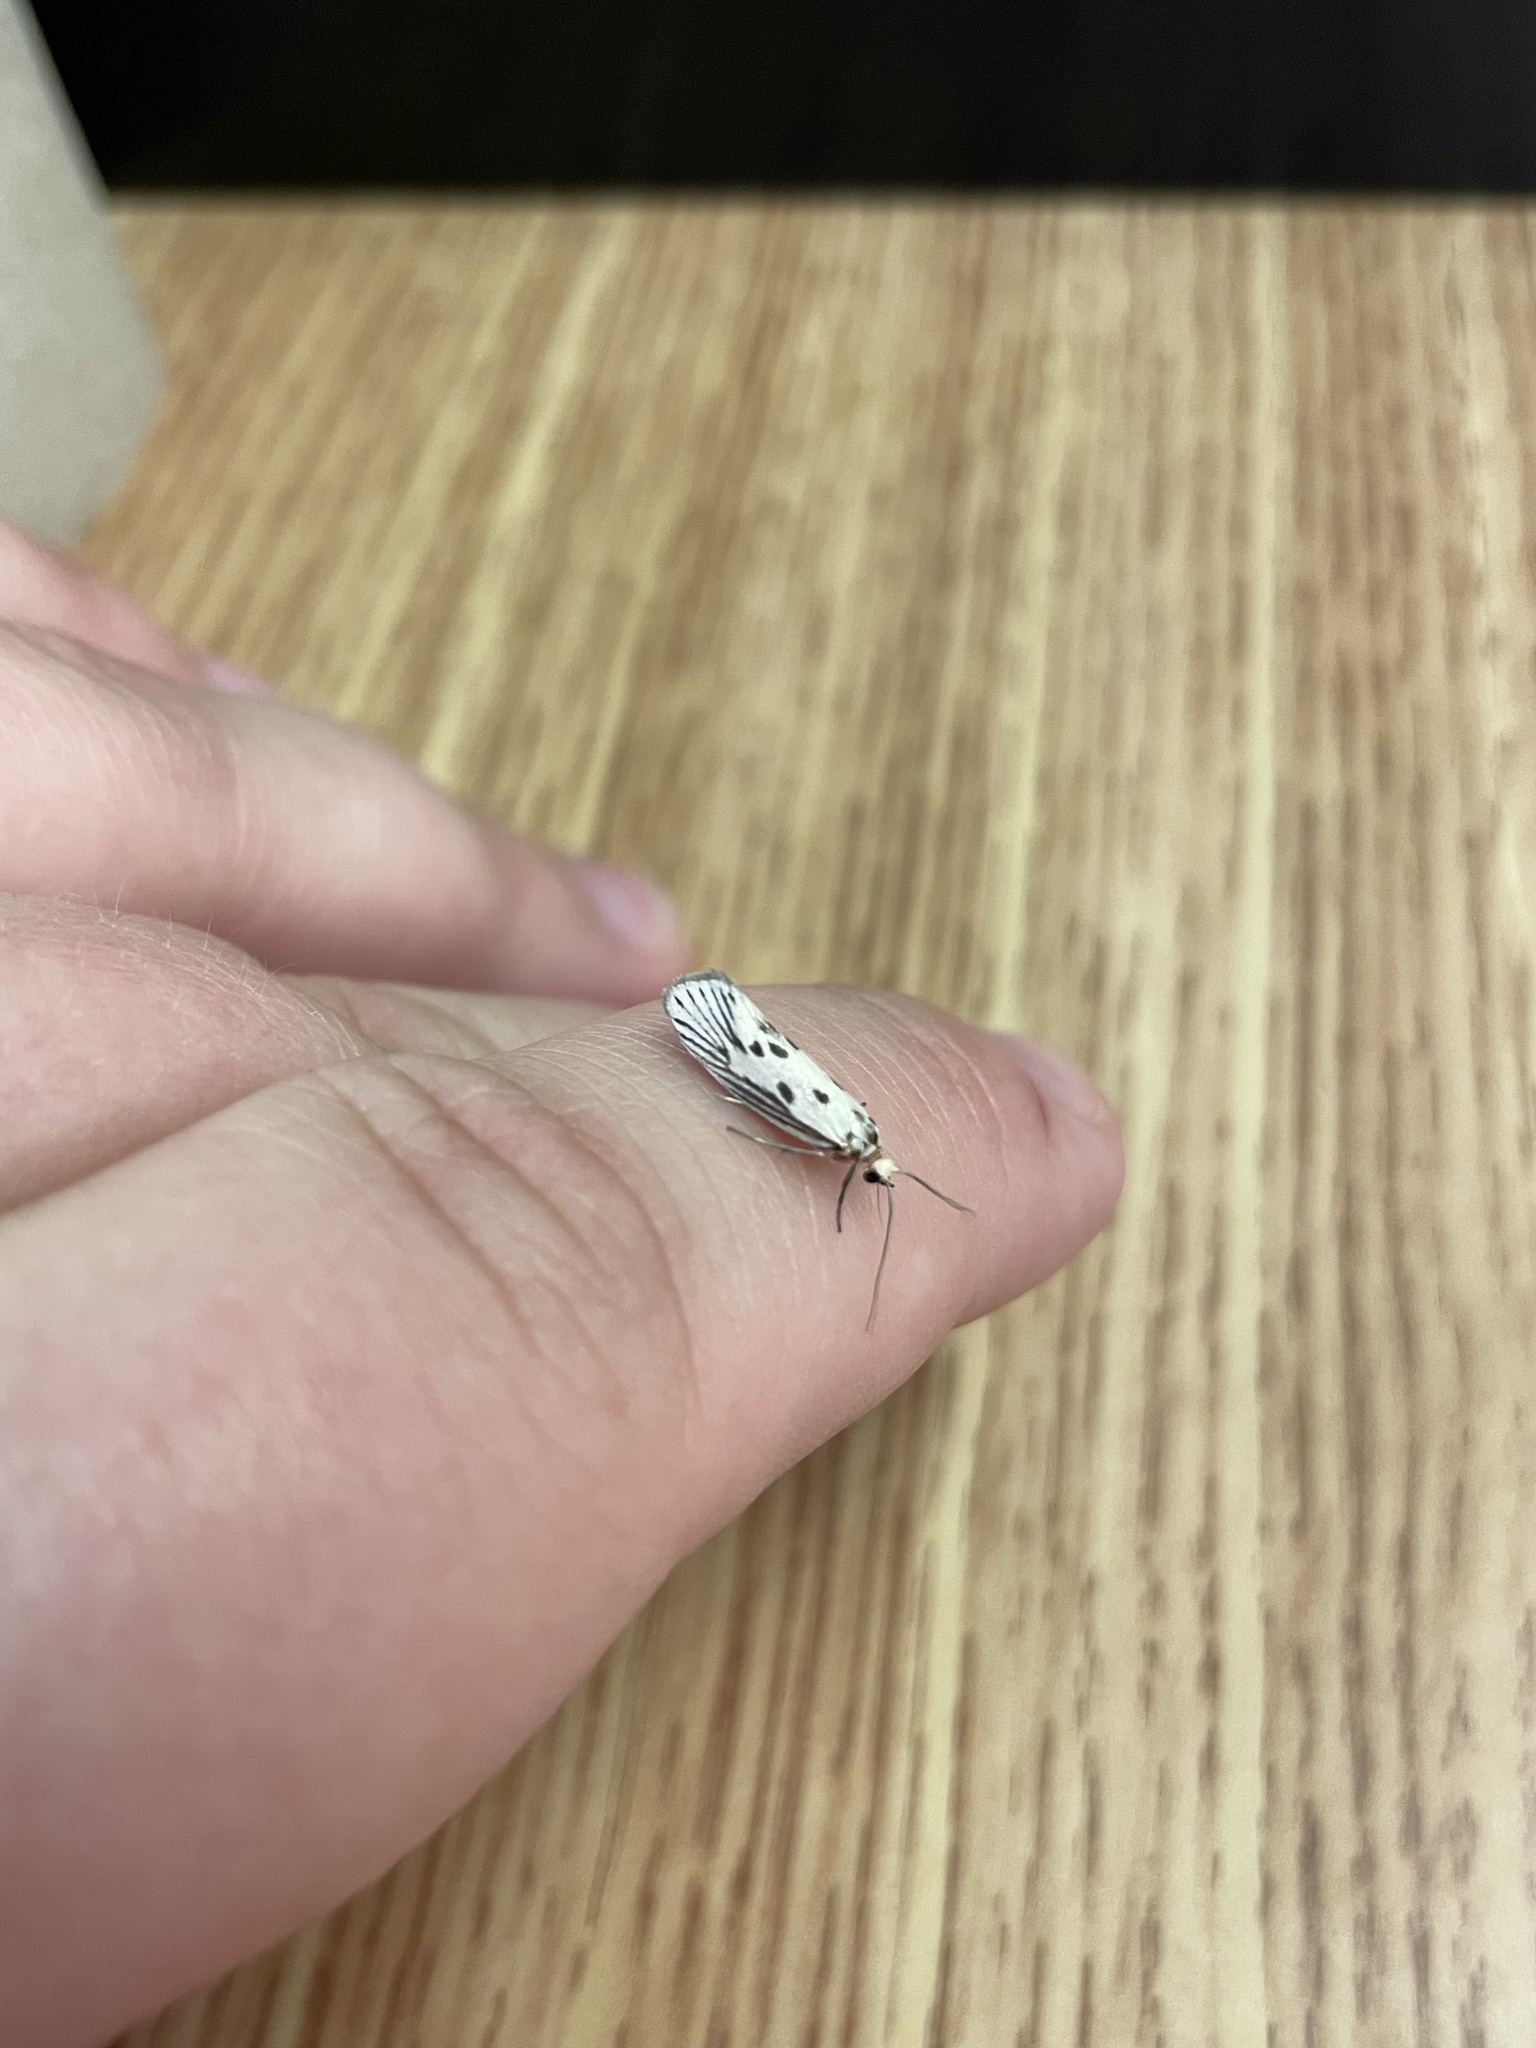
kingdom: Animalia
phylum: Arthropoda
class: Insecta
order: Lepidoptera
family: Lacturidae
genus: Lactura
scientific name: Lactura
